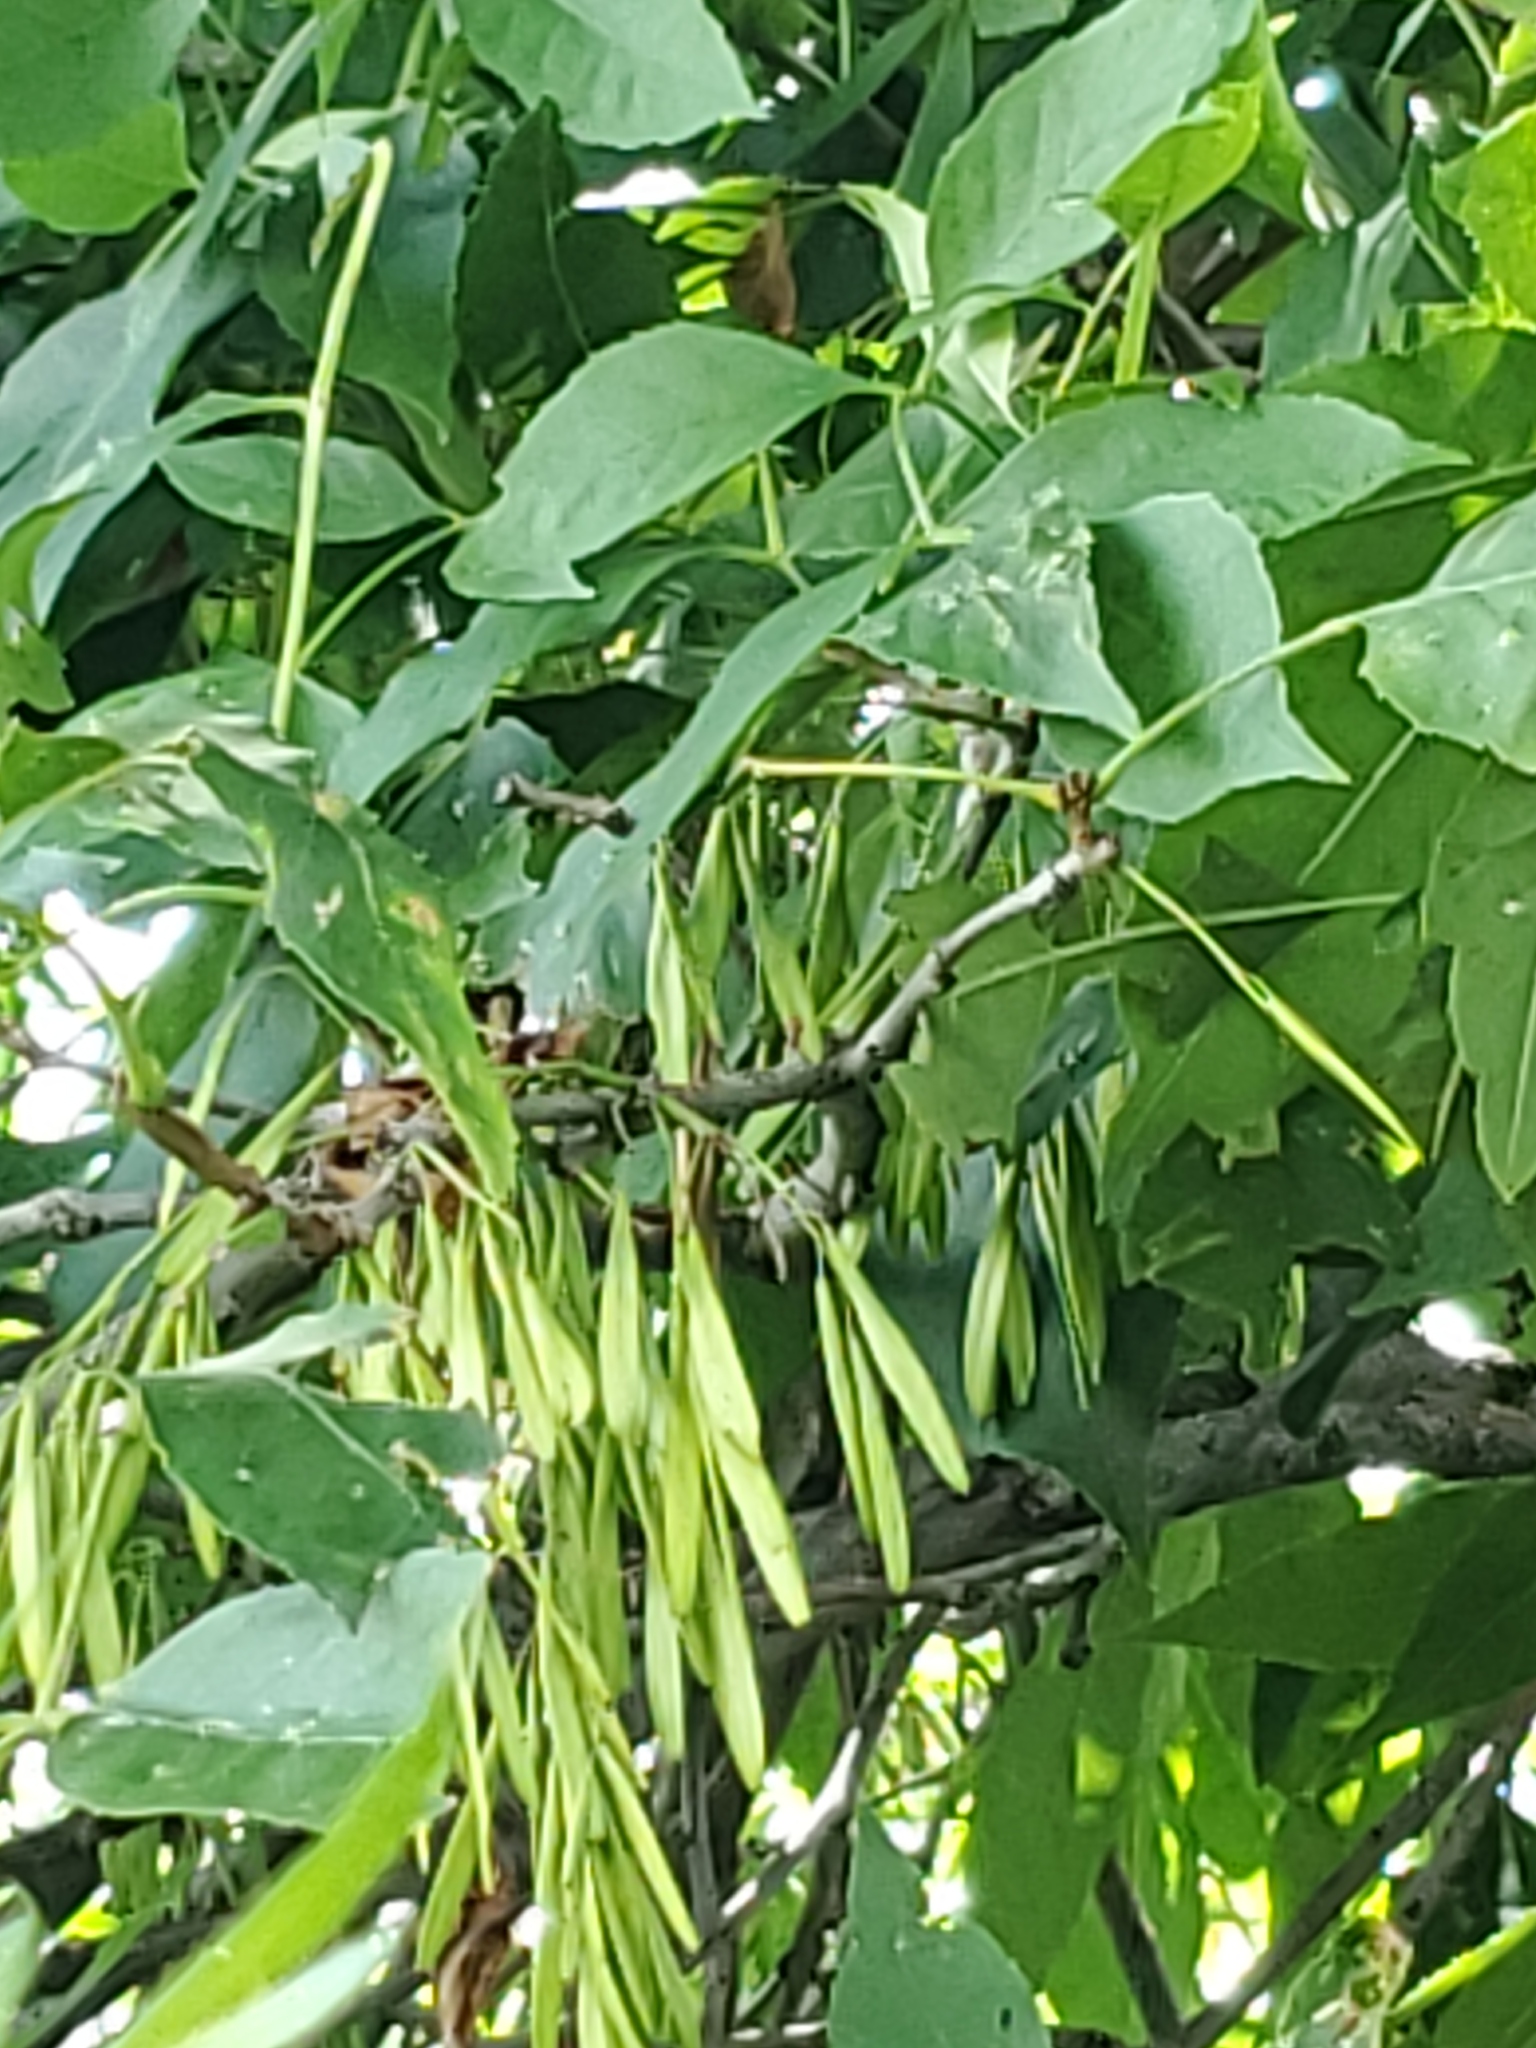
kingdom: Plantae
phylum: Tracheophyta
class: Magnoliopsida
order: Lamiales
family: Oleaceae
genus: Fraxinus
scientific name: Fraxinus pennsylvanica
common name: Green ash
